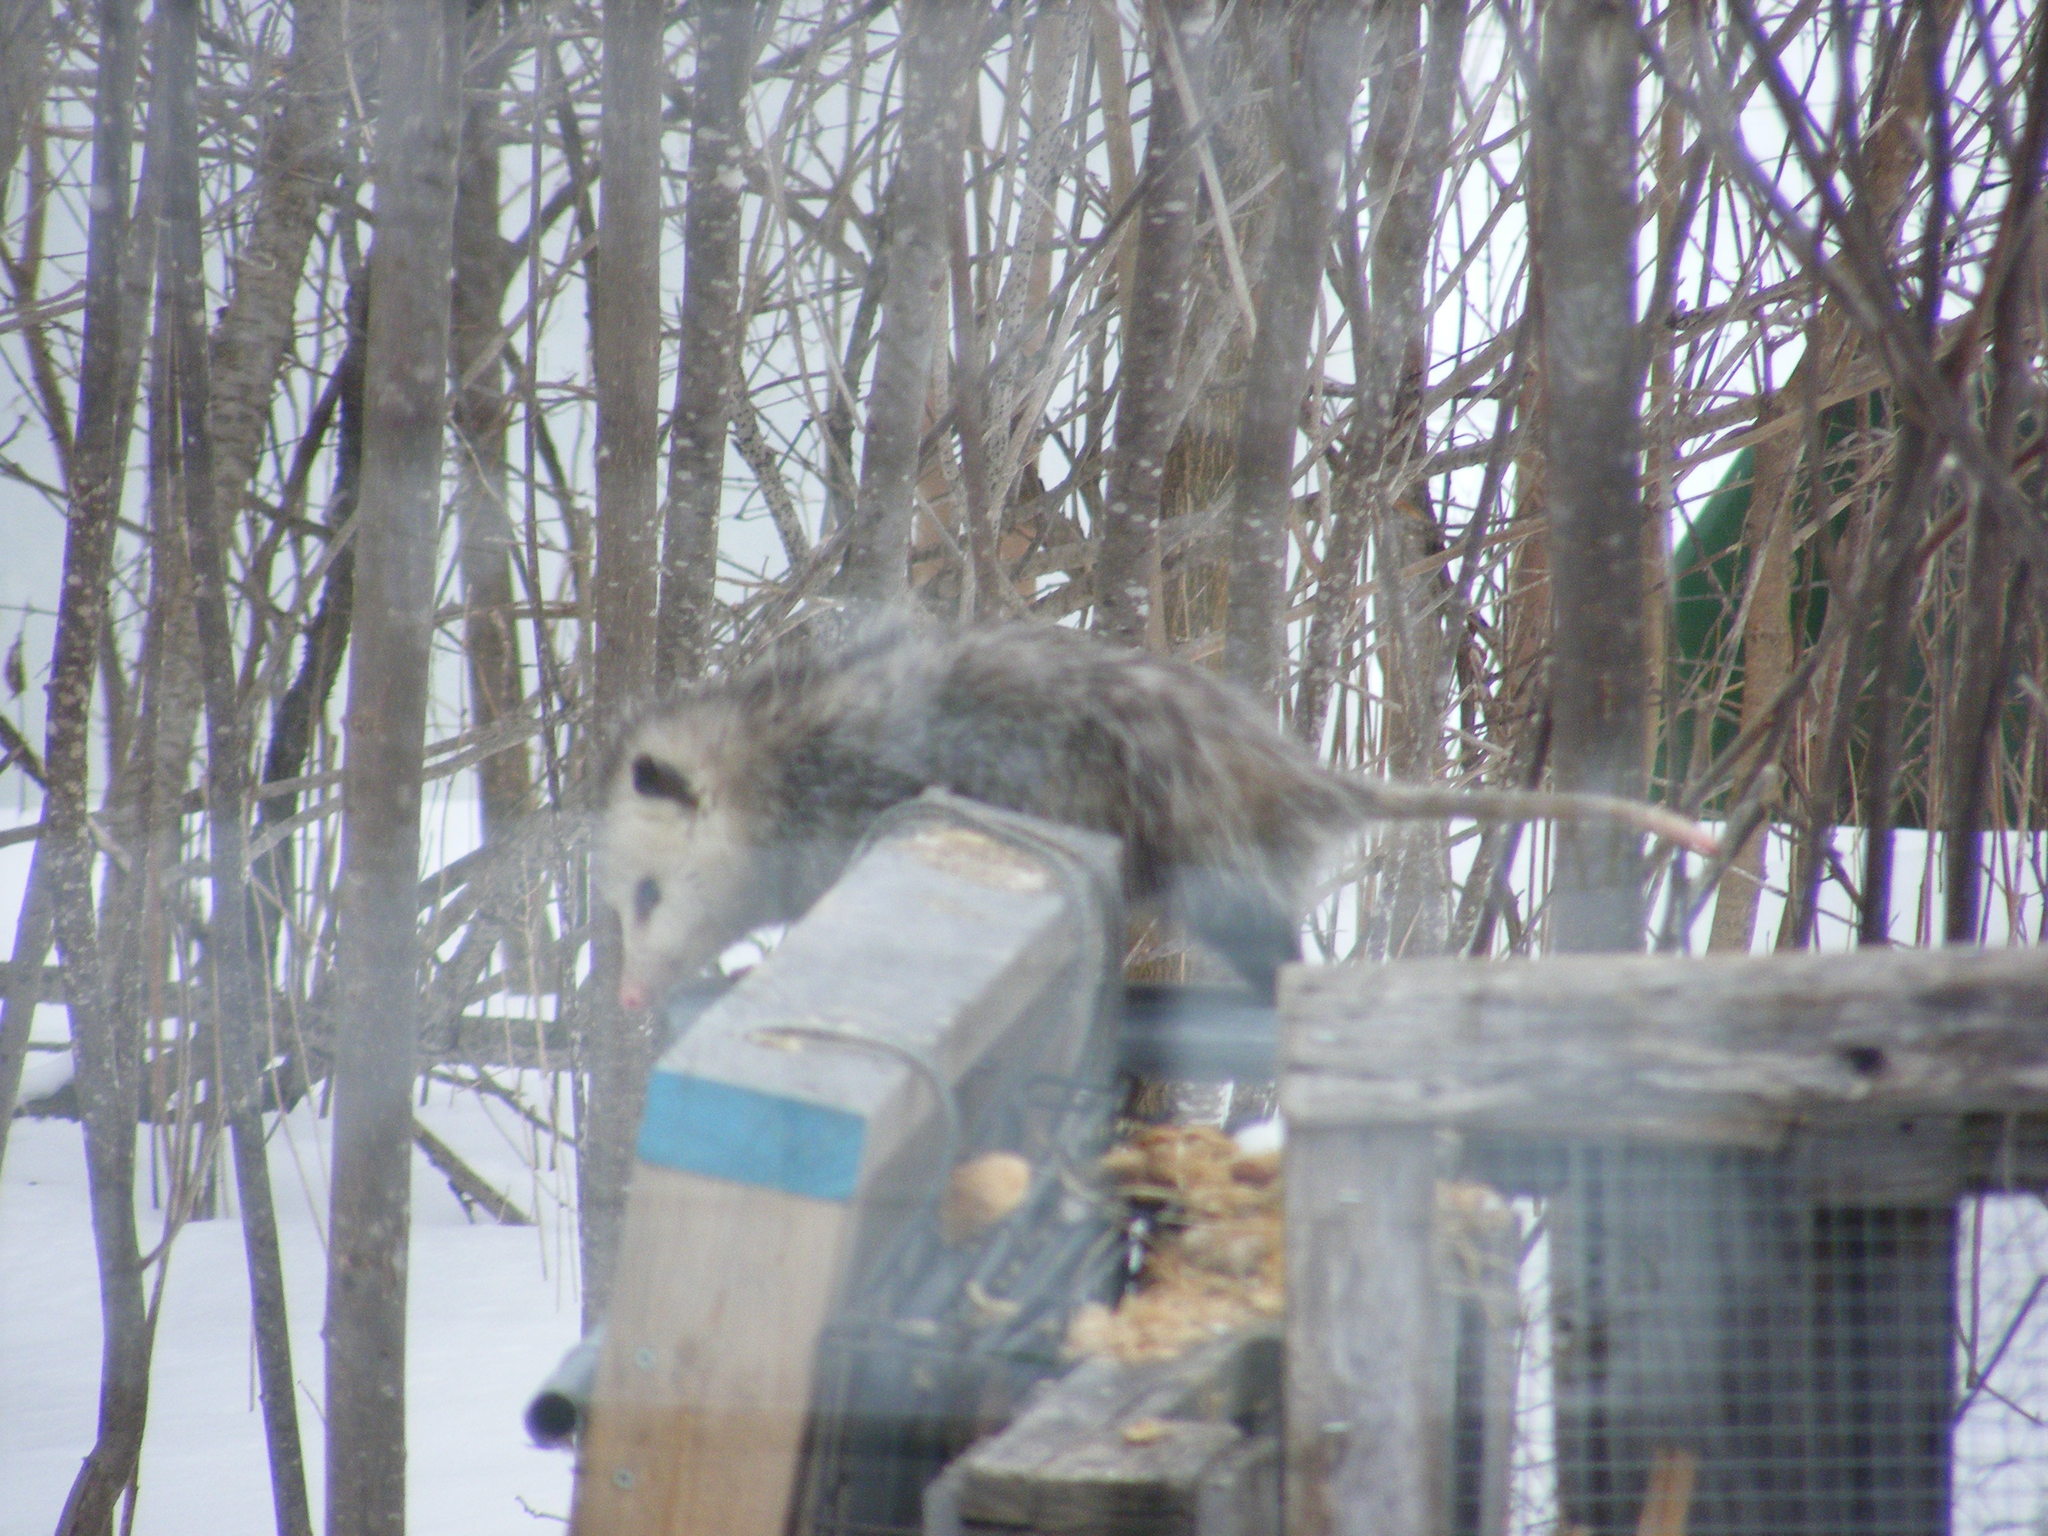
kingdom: Animalia
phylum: Chordata
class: Mammalia
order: Didelphimorphia
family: Didelphidae
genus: Didelphis
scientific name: Didelphis virginiana
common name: Virginia opossum
